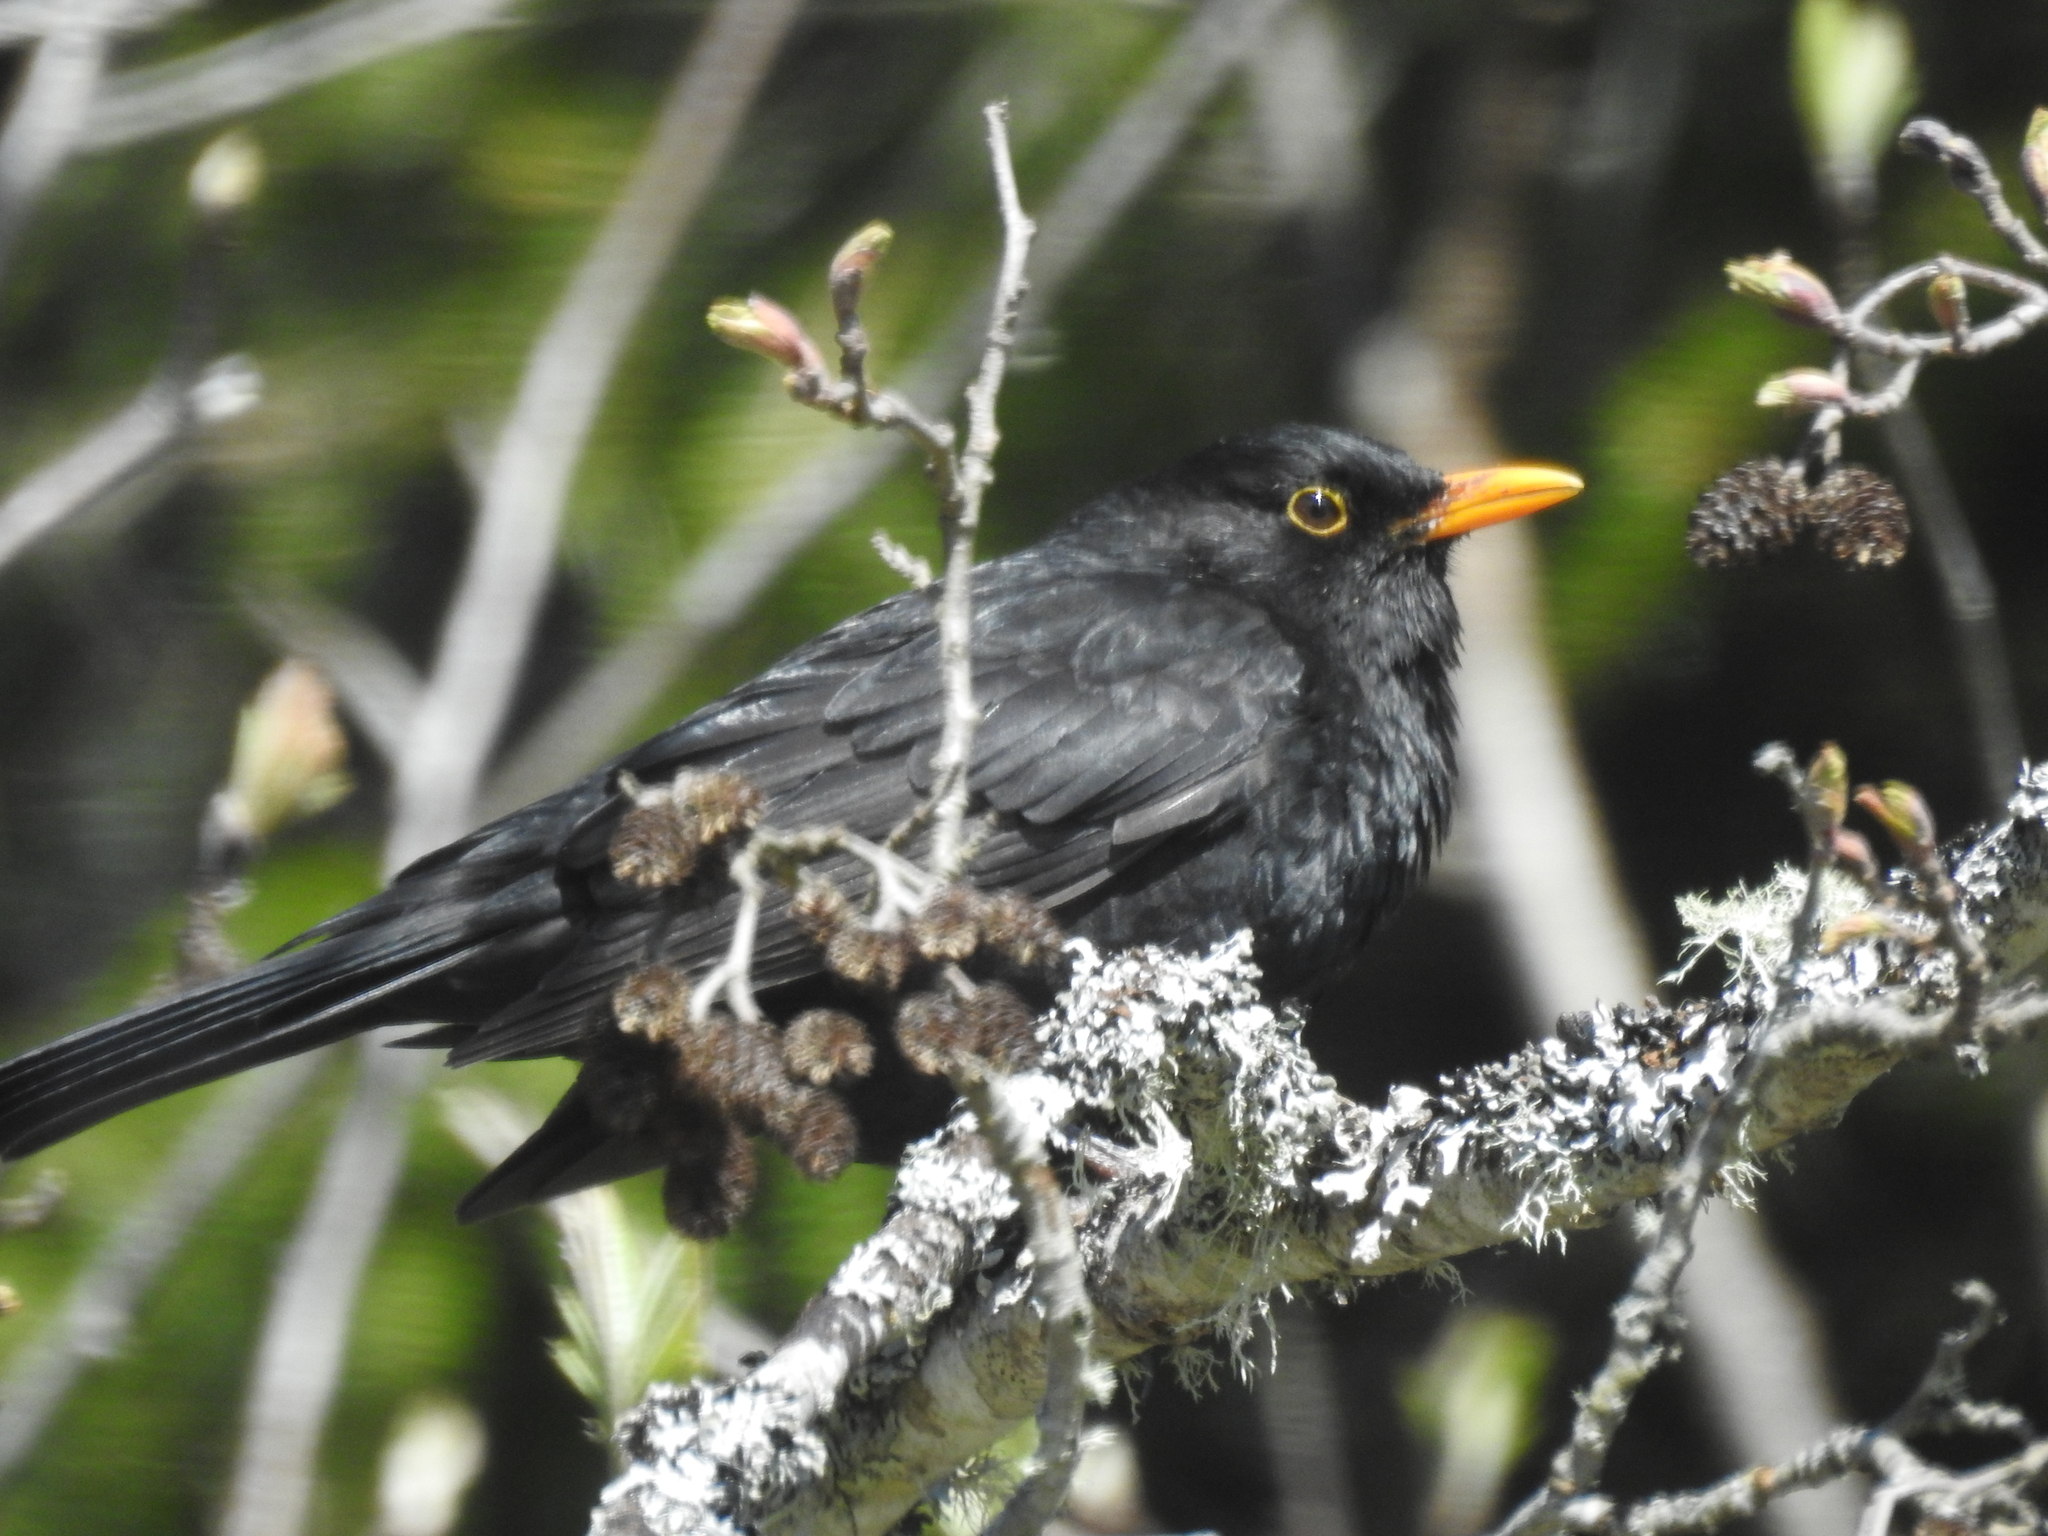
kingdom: Animalia
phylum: Chordata
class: Aves
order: Passeriformes
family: Turdidae
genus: Turdus
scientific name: Turdus merula
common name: Common blackbird
